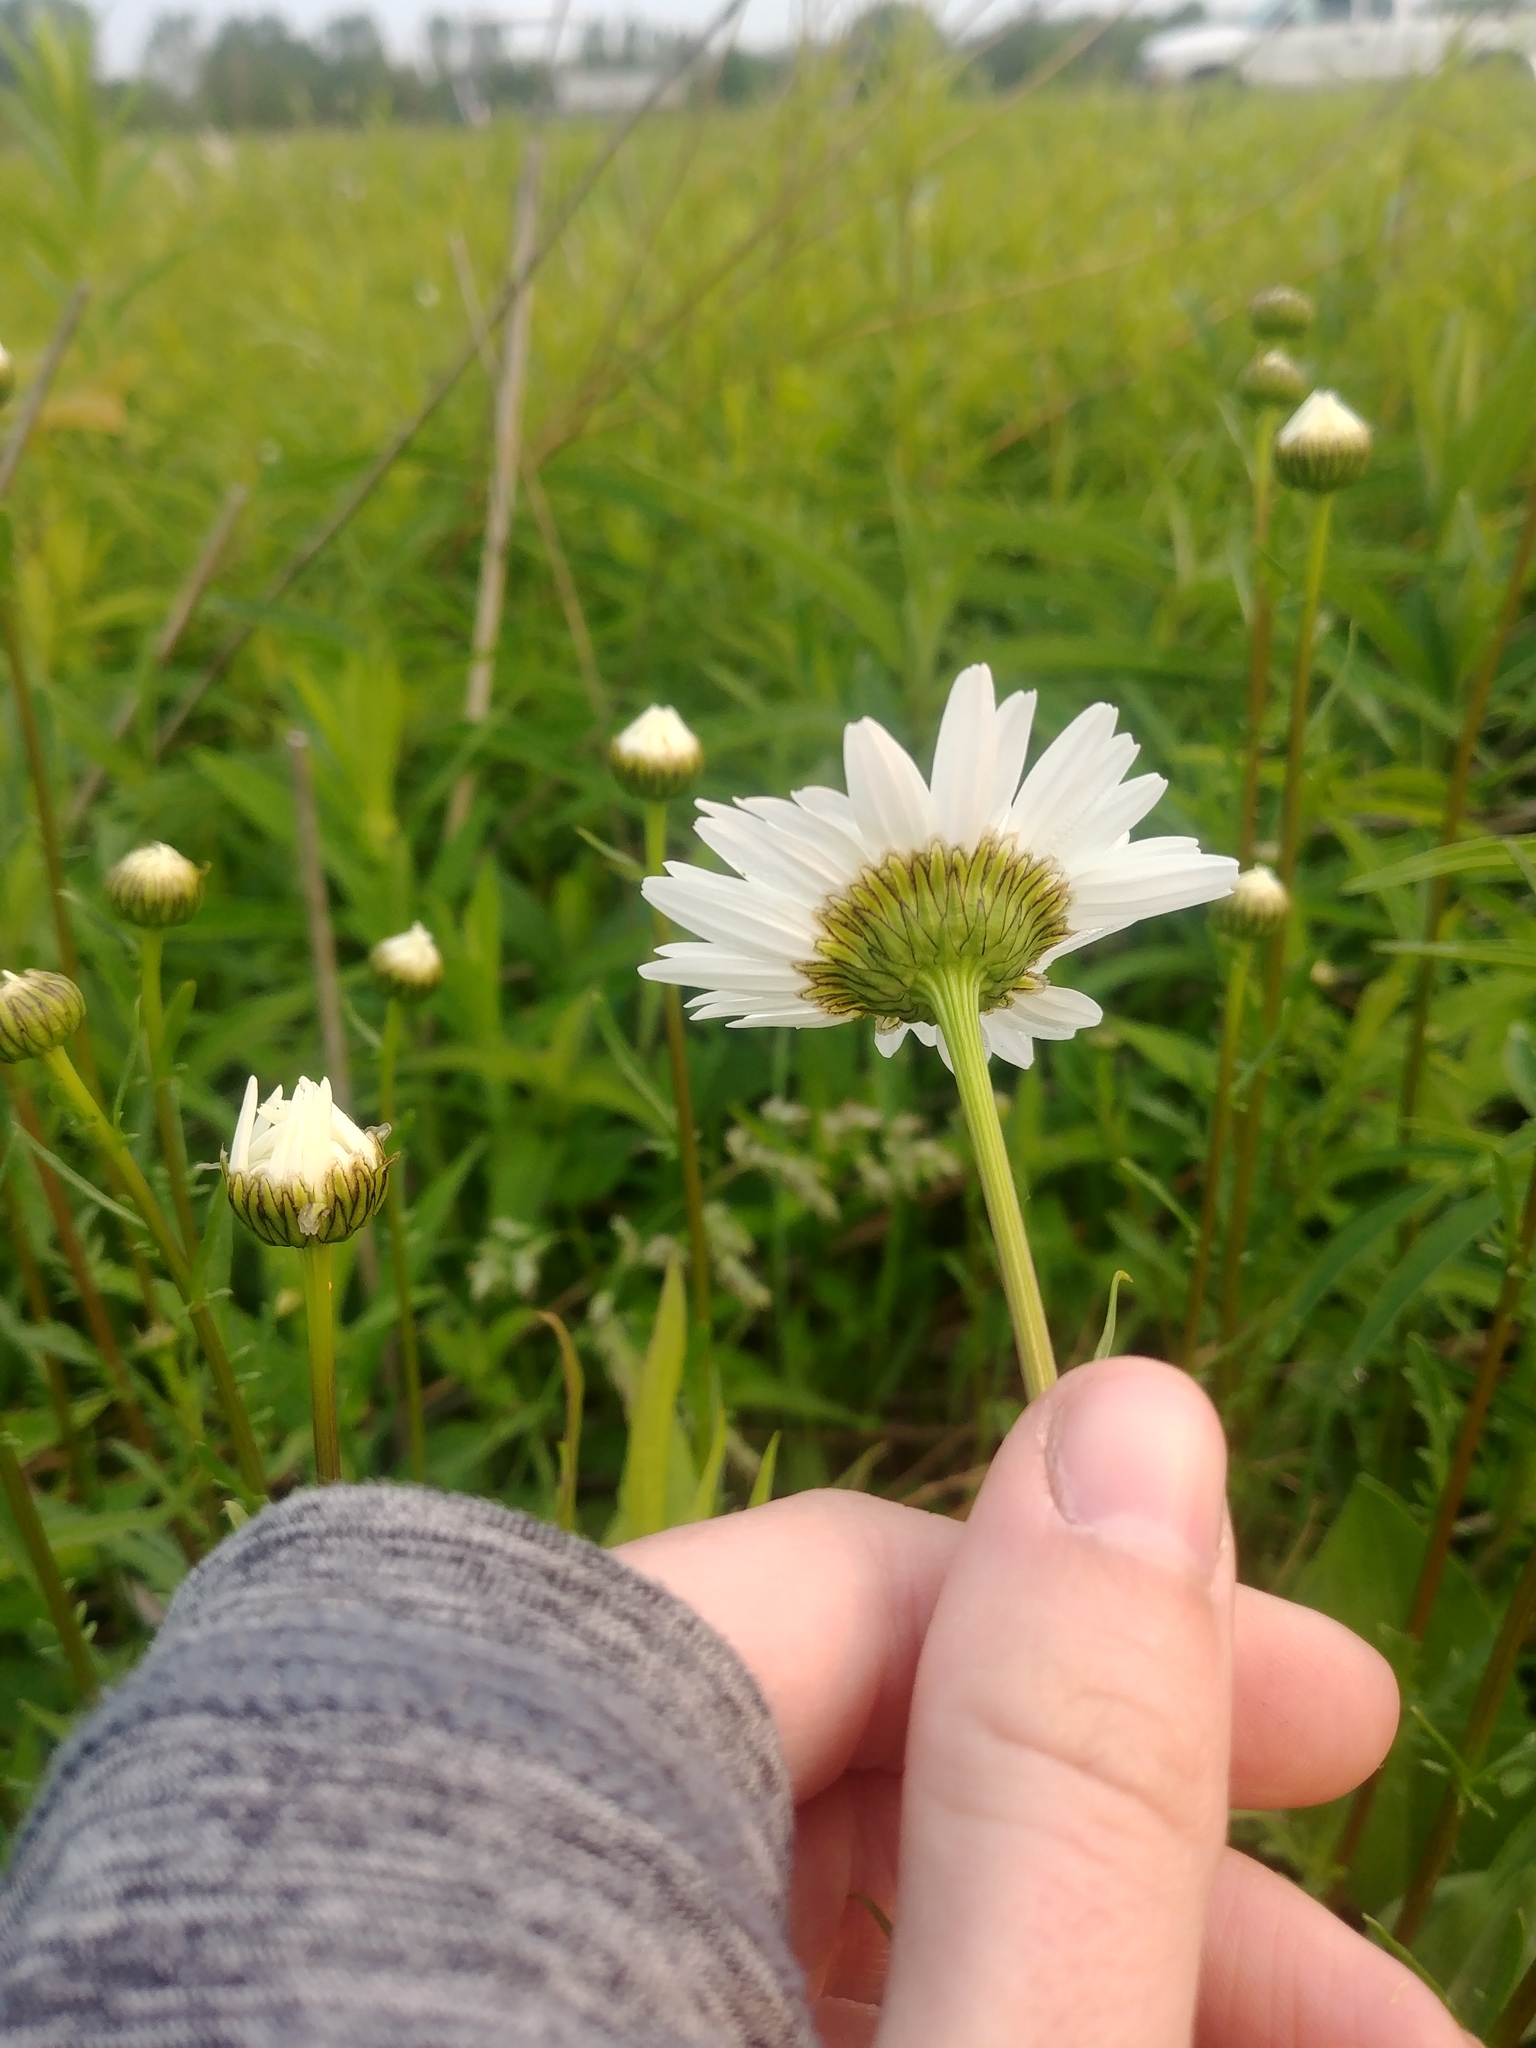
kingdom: Plantae
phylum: Tracheophyta
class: Magnoliopsida
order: Asterales
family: Asteraceae
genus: Leucanthemum
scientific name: Leucanthemum vulgare
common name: Oxeye daisy
